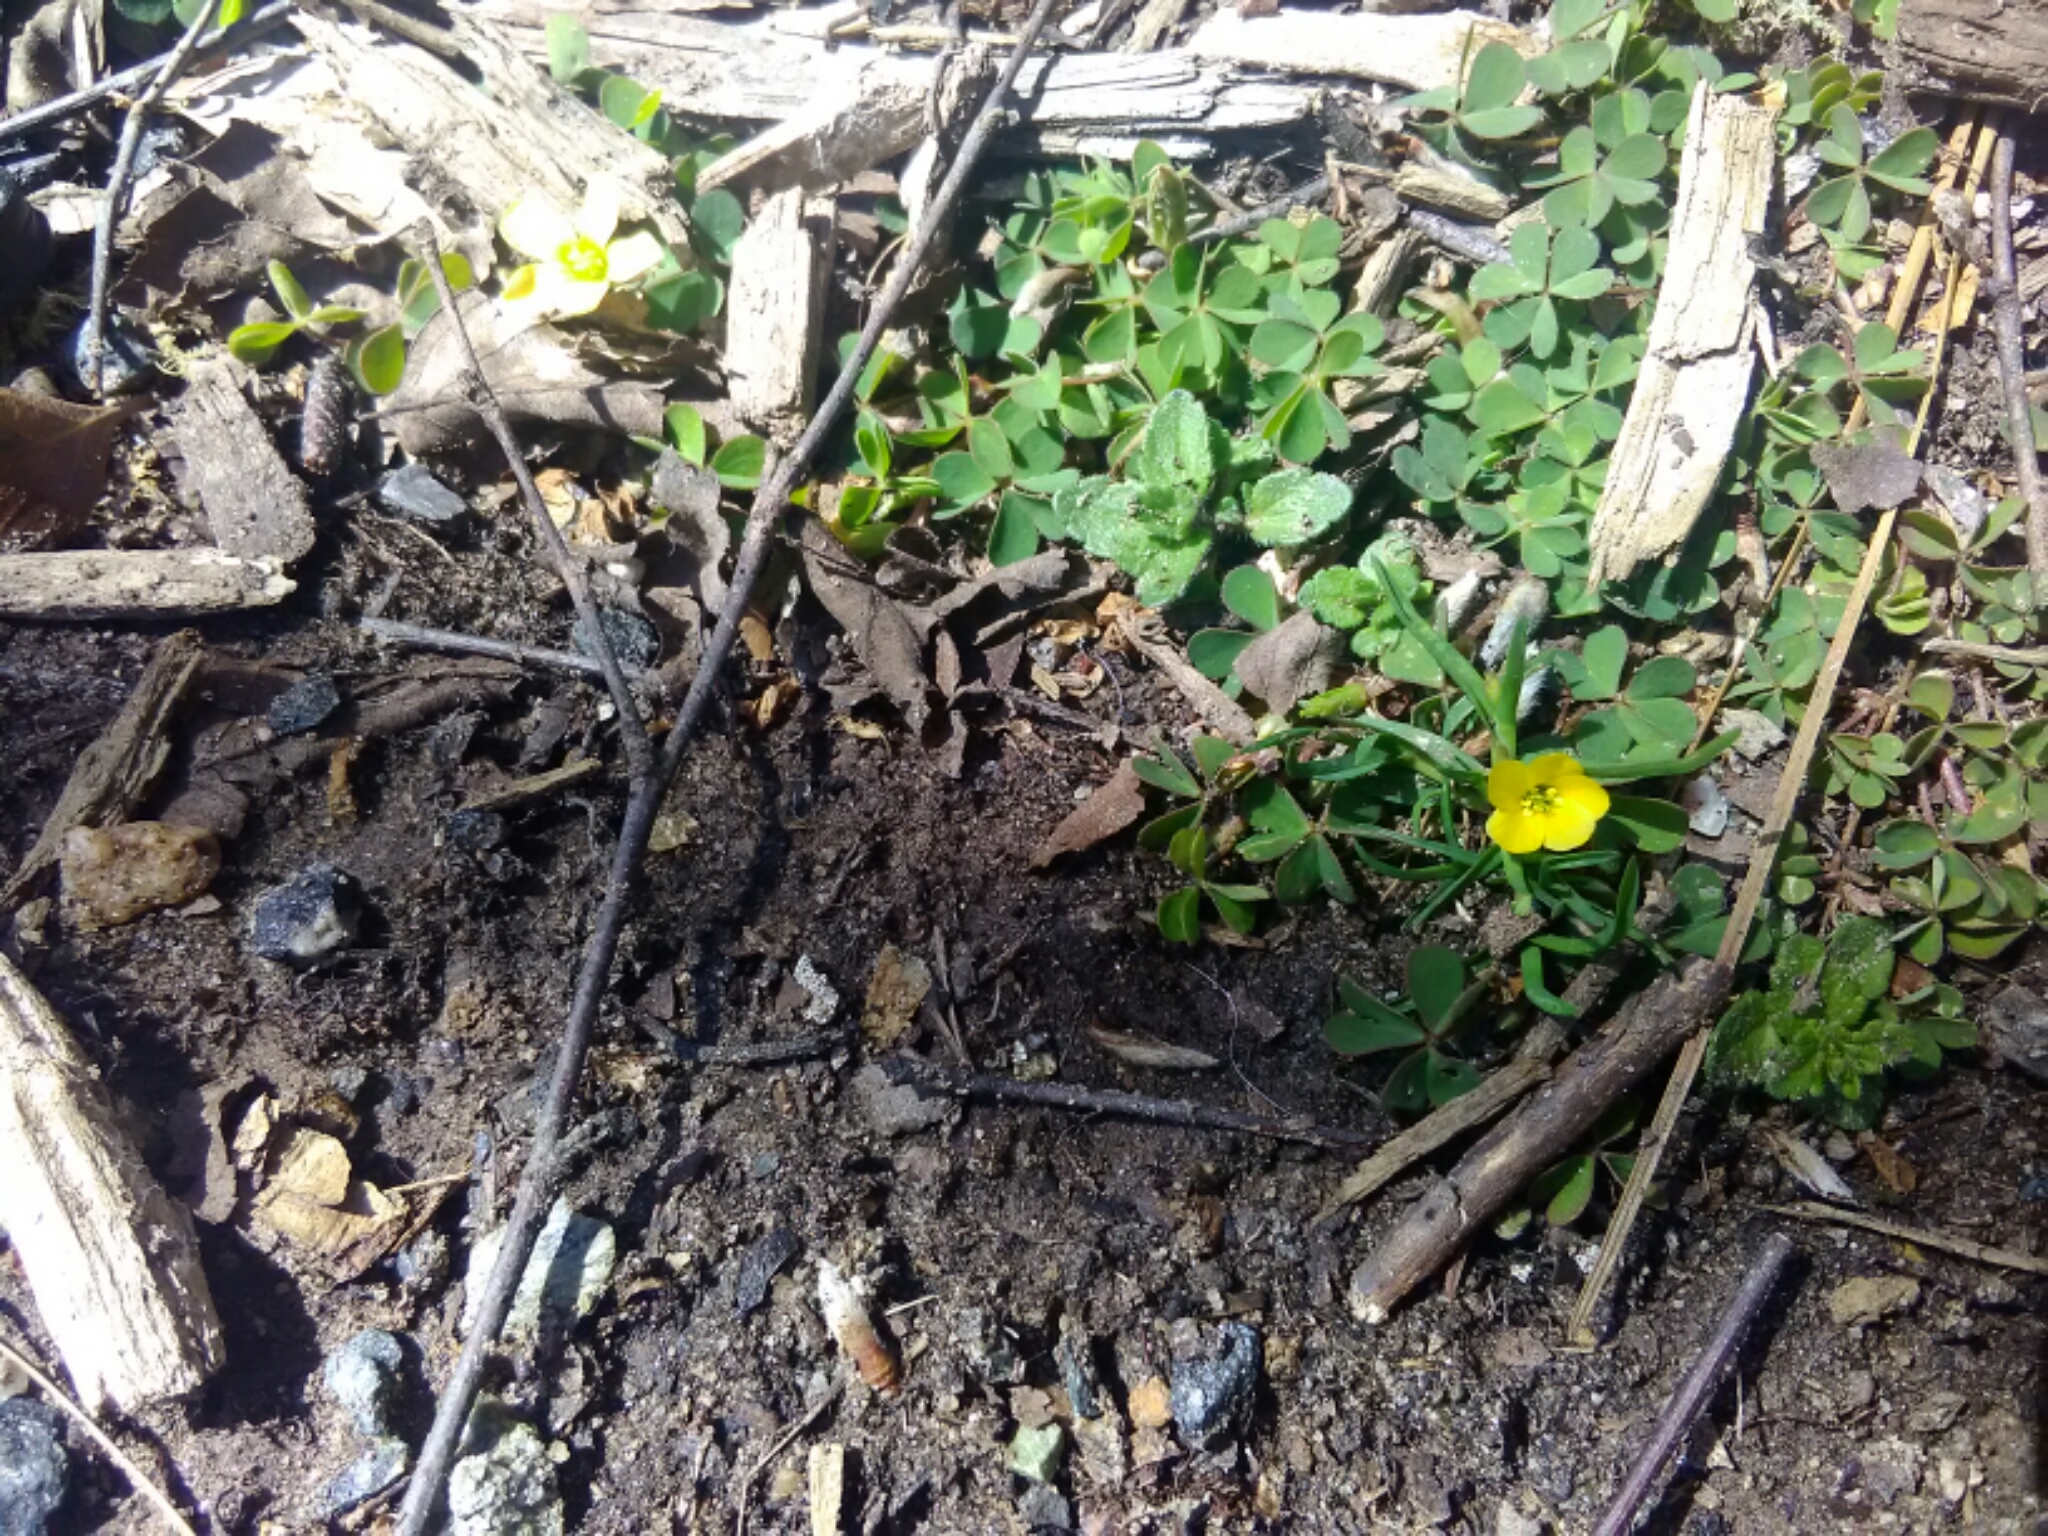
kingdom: Plantae
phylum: Tracheophyta
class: Magnoliopsida
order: Oxalidales
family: Oxalidaceae
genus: Oxalis
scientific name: Oxalis corniculata
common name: Procumbent yellow-sorrel
